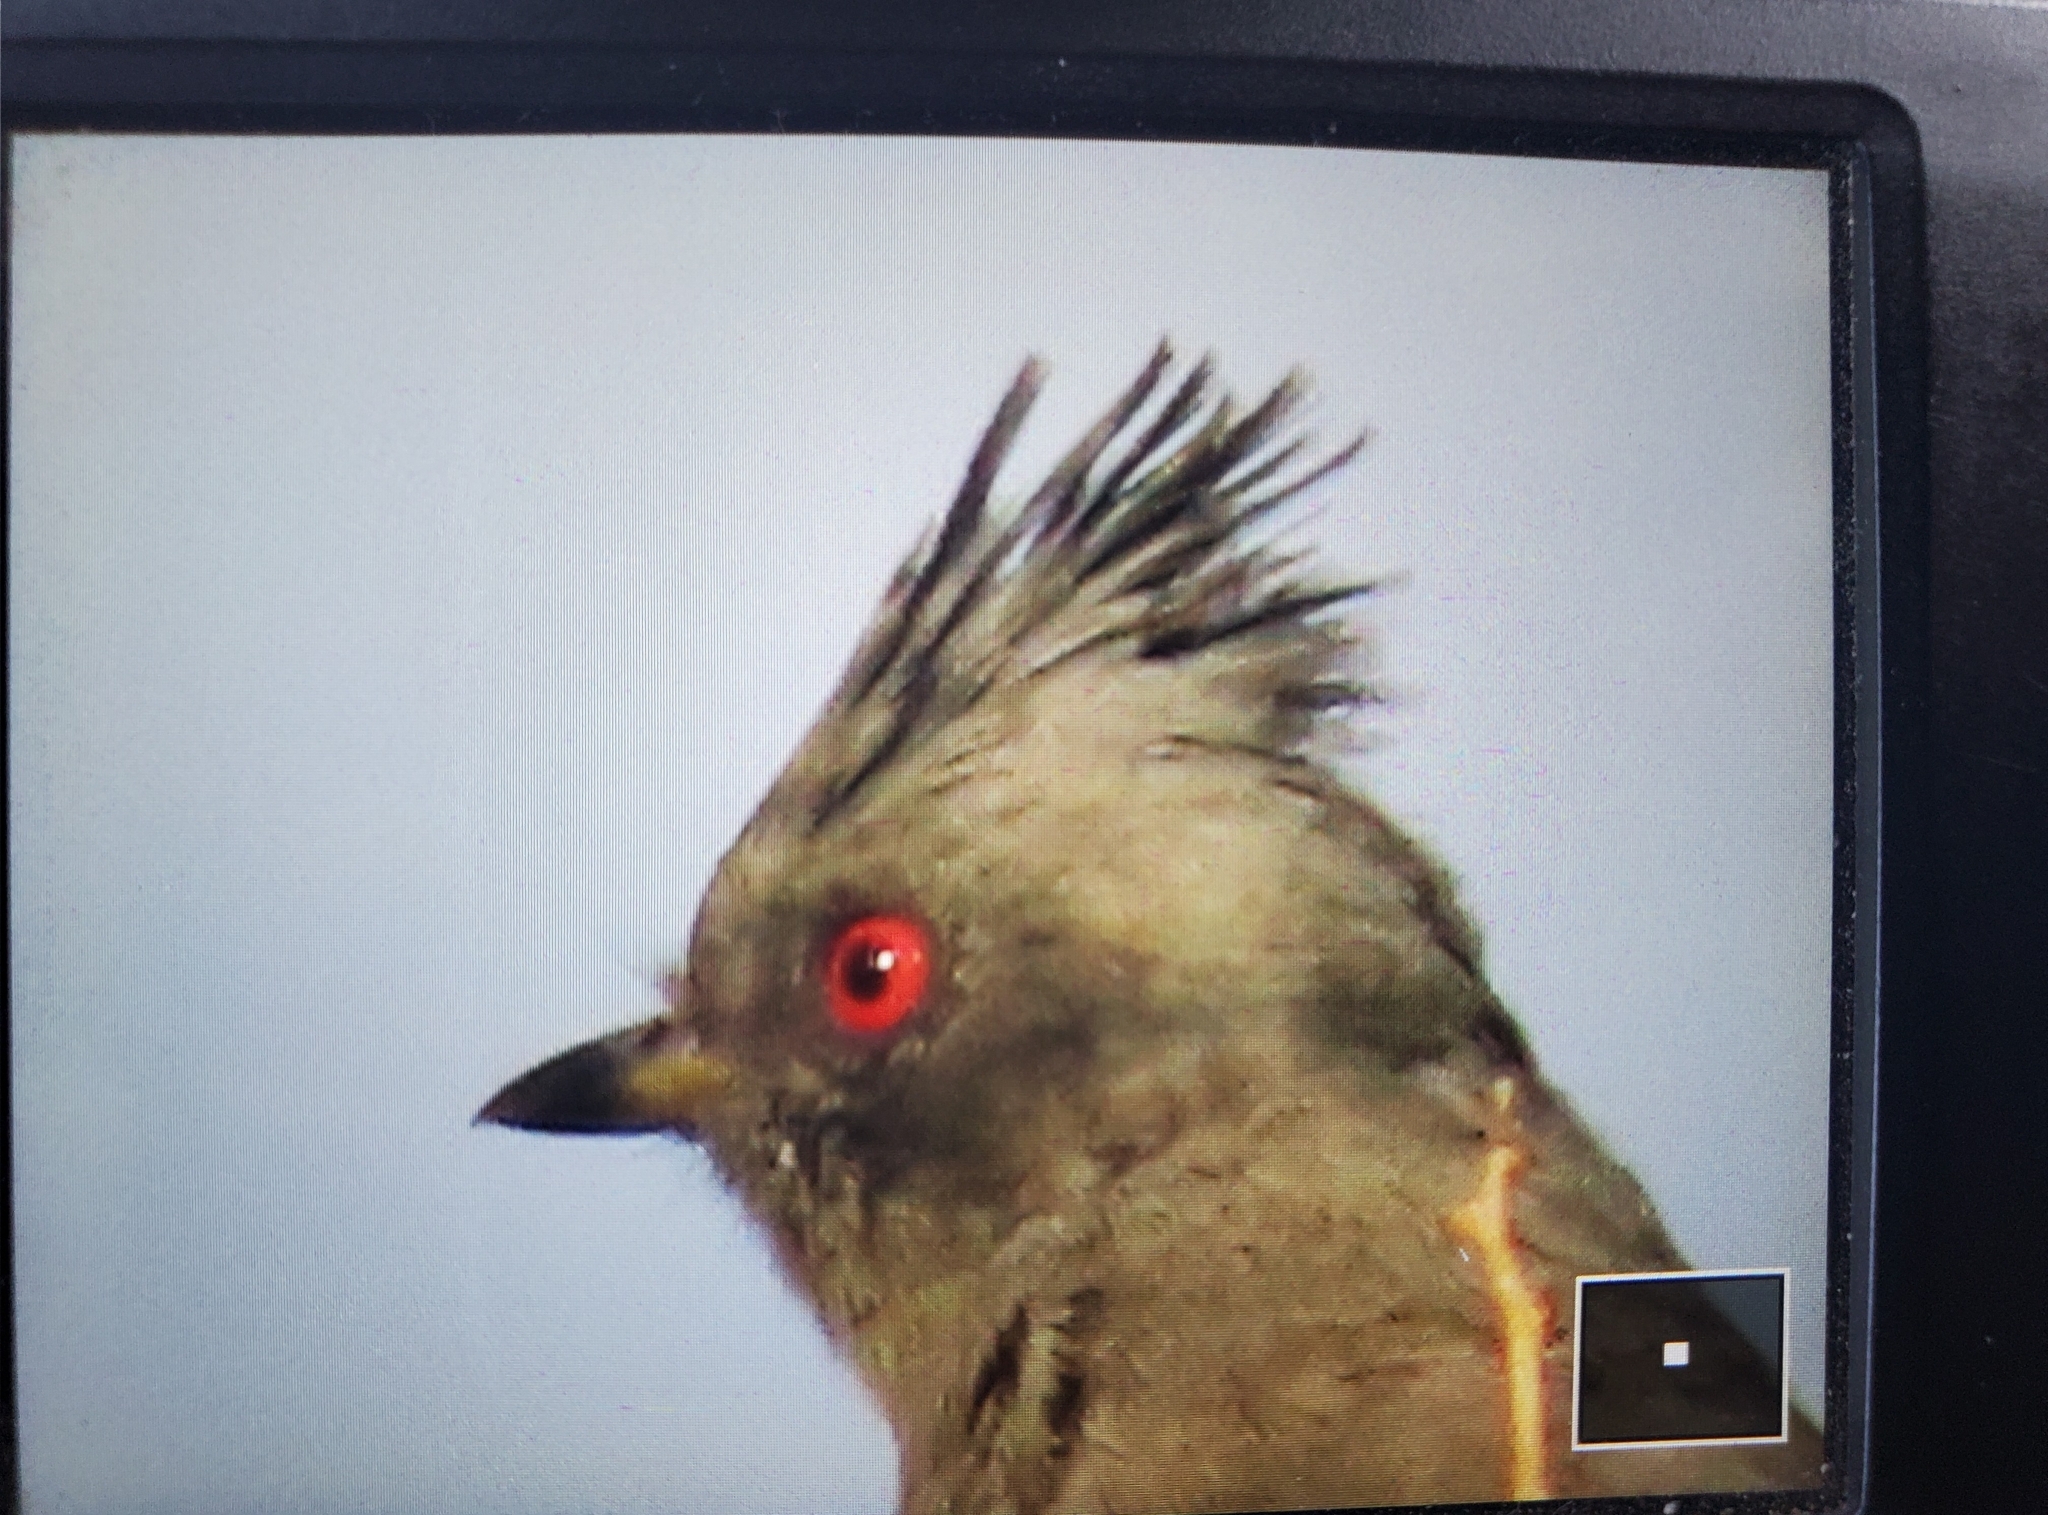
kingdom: Animalia
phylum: Chordata
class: Aves
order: Passeriformes
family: Ptilogonatidae
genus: Phainopepla
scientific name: Phainopepla nitens
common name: Phainopepla
